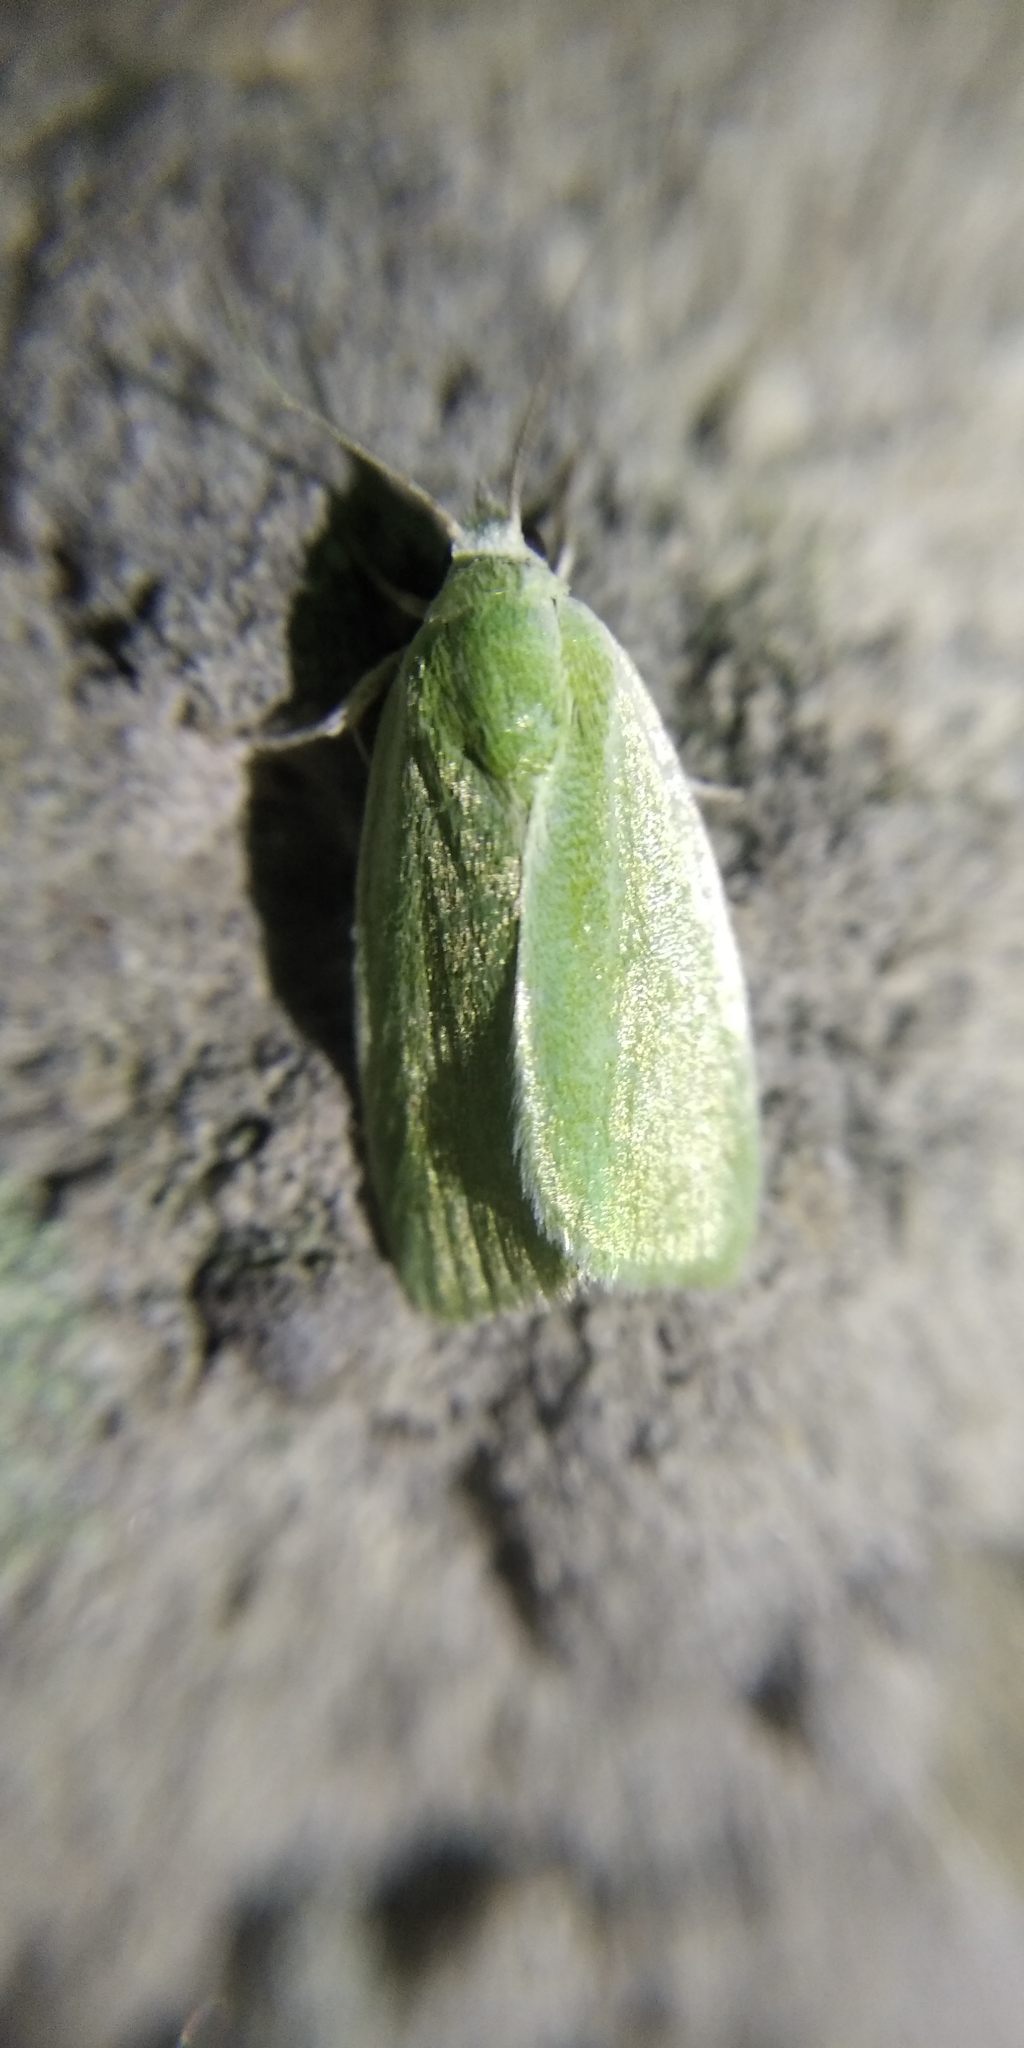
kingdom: Animalia
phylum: Arthropoda
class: Insecta
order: Lepidoptera
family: Nolidae
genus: Earias
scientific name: Earias clorana
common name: Cream-bordered green pea
